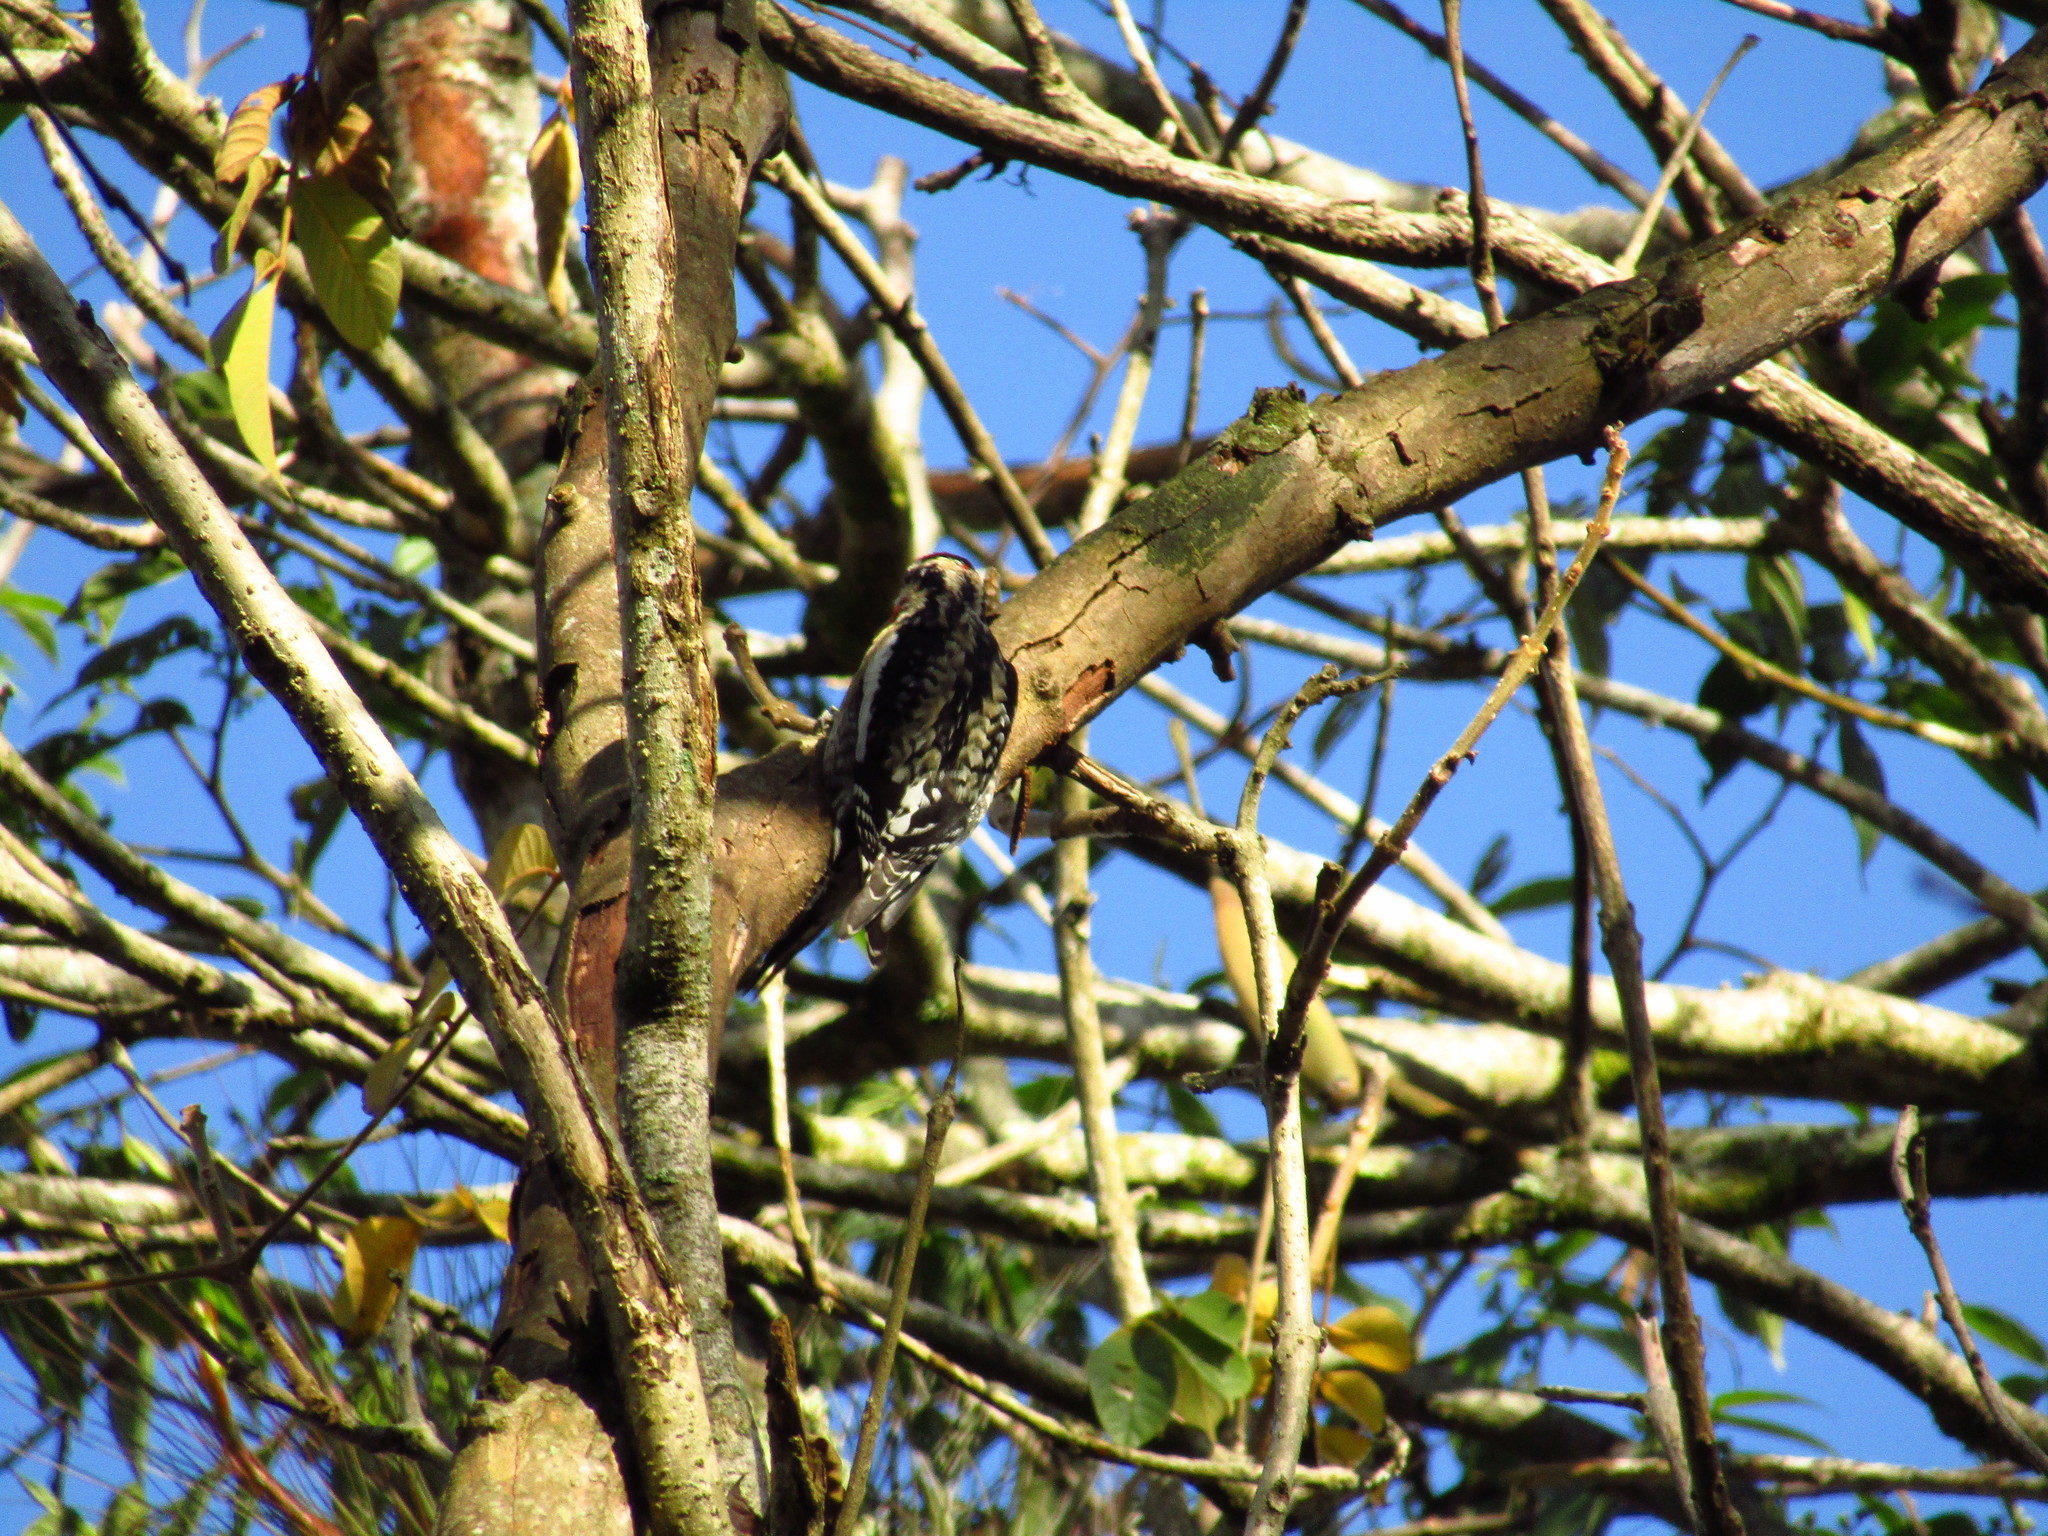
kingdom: Animalia
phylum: Chordata
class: Aves
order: Piciformes
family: Picidae
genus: Sphyrapicus
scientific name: Sphyrapicus varius
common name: Yellow-bellied sapsucker
